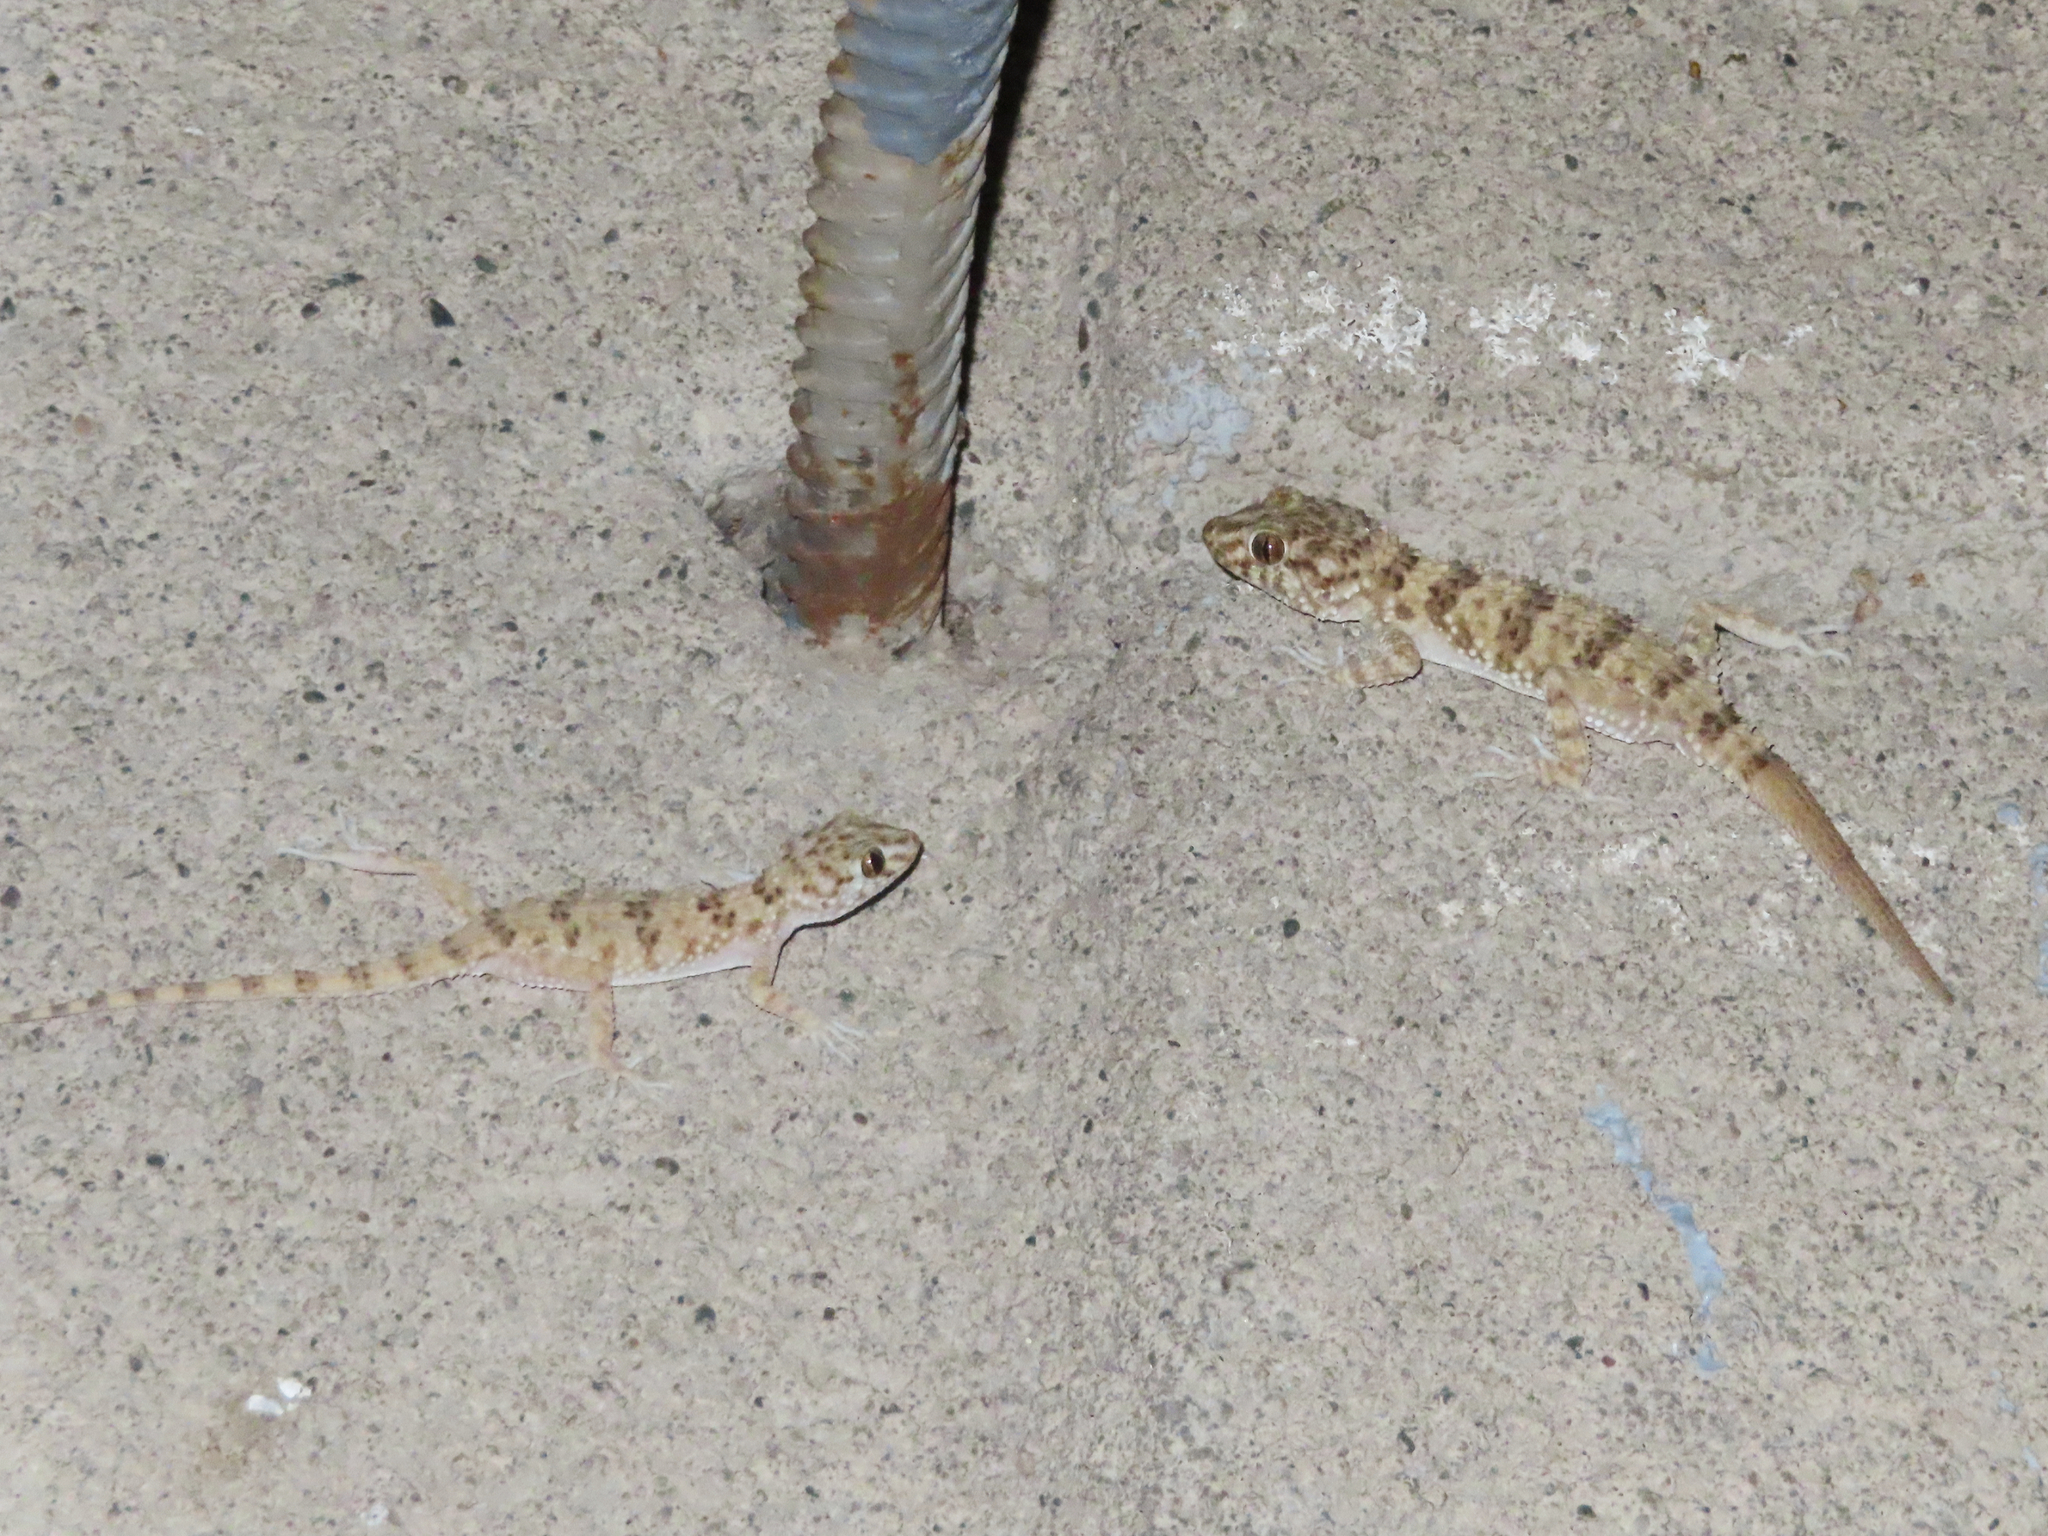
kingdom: Animalia
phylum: Chordata
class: Squamata
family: Gekkonidae
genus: Tenuidactylus
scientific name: Tenuidactylus caspius
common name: Caspian bent-toed gecko
